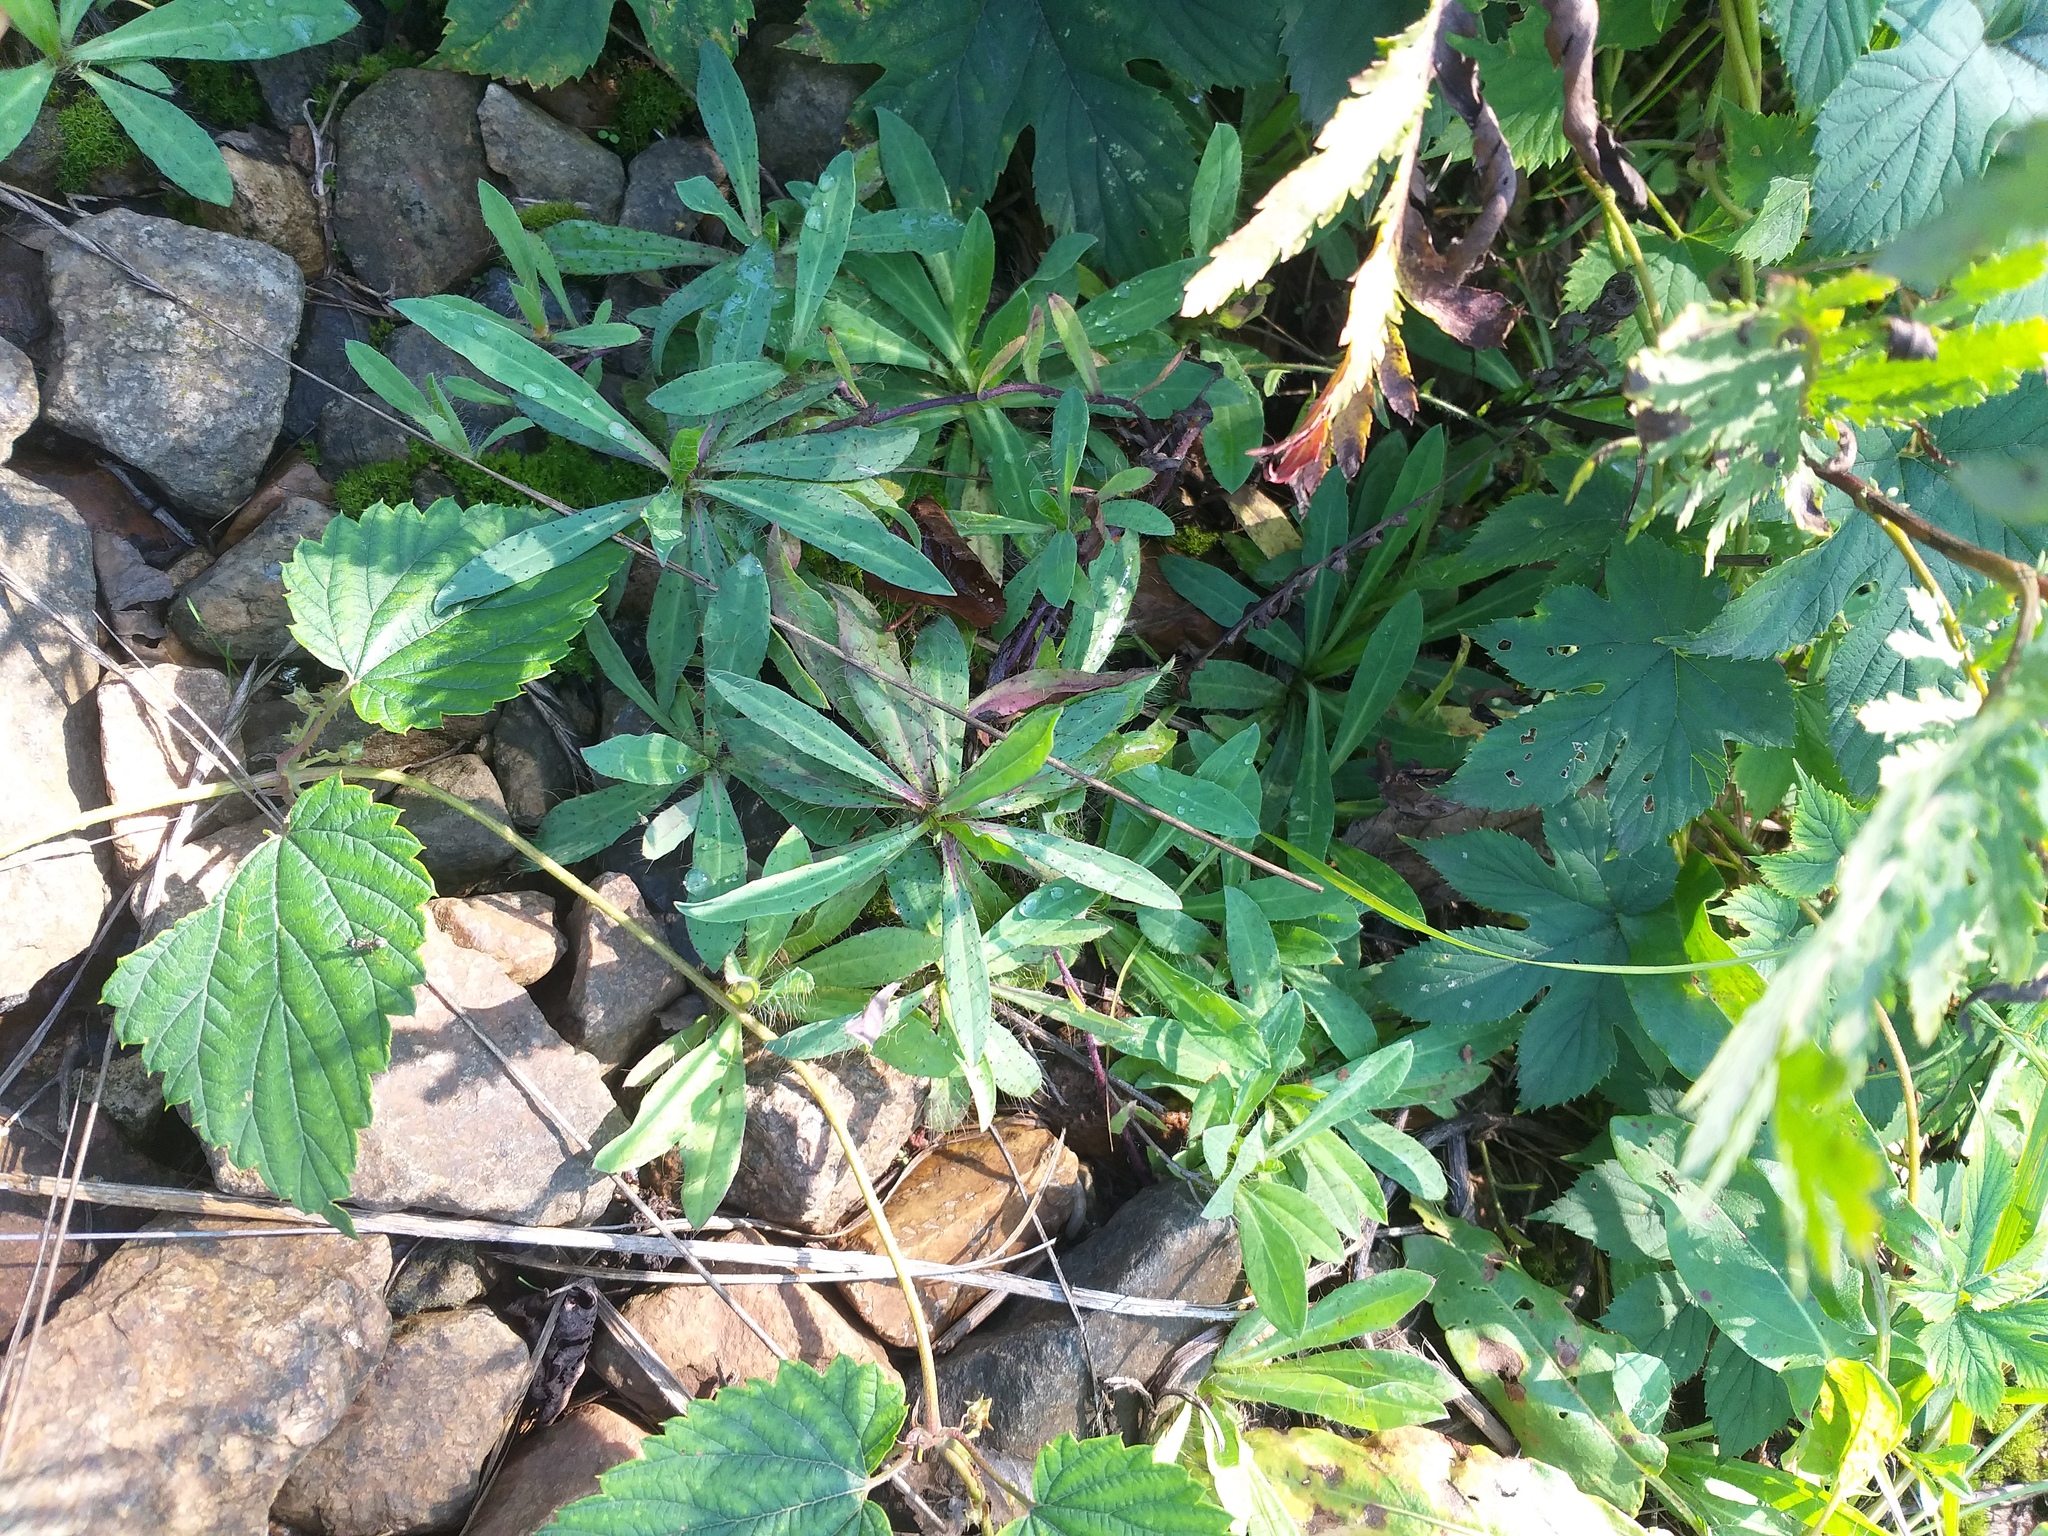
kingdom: Plantae
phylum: Tracheophyta
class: Magnoliopsida
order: Asterales
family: Asteraceae
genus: Pilosella
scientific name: Pilosella
